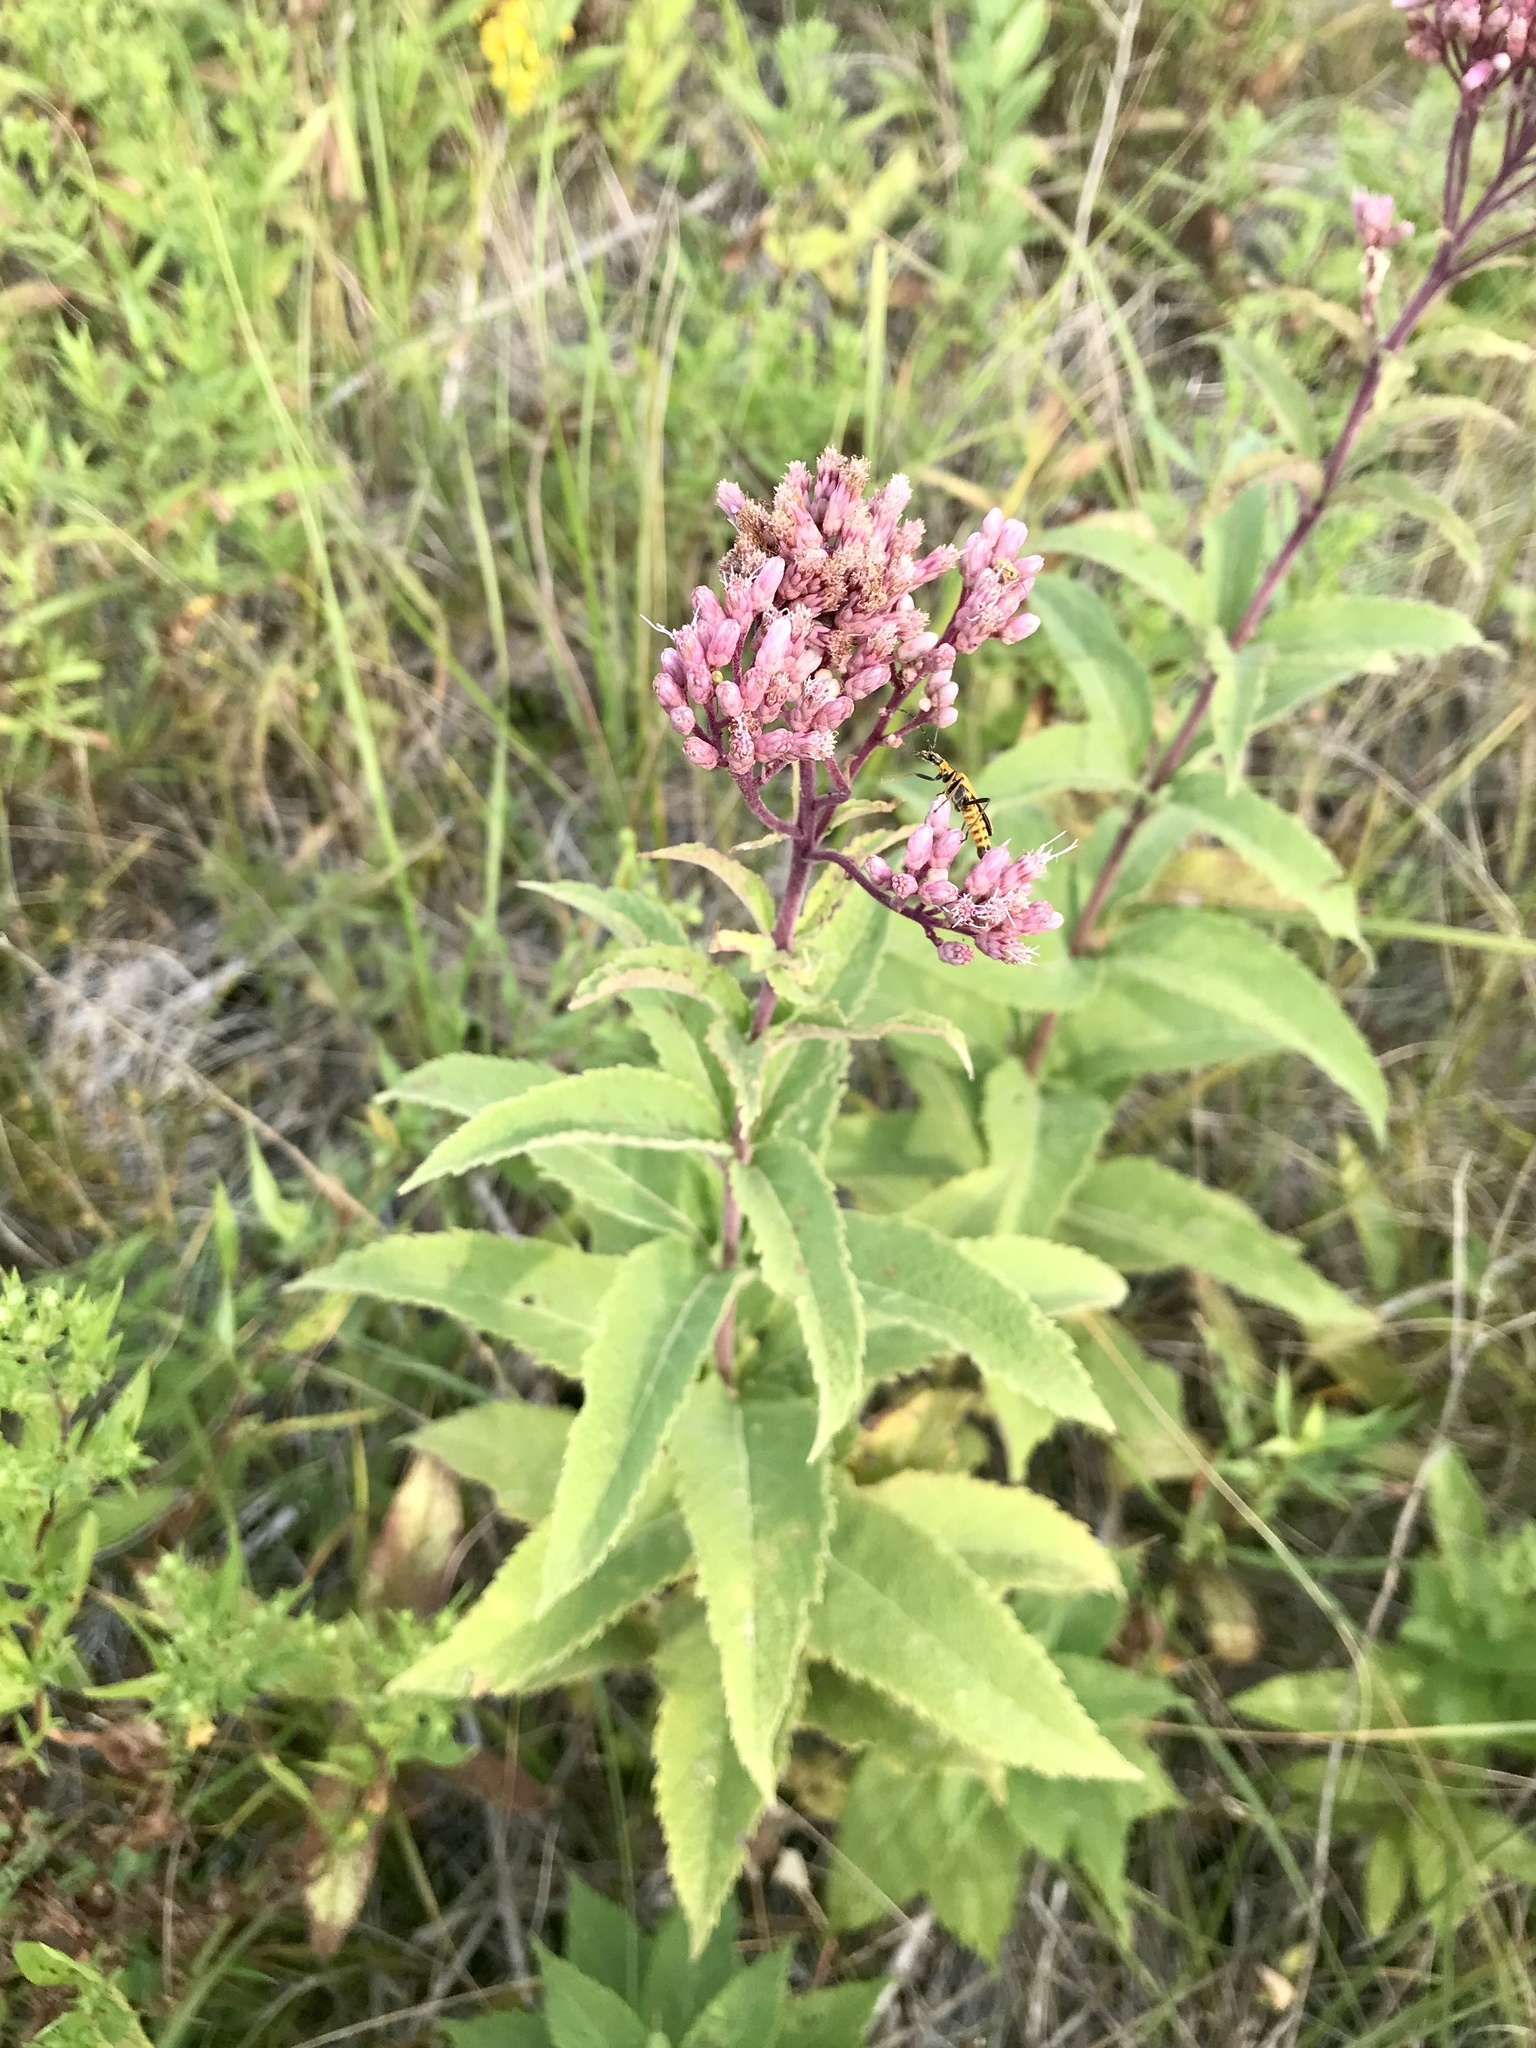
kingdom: Plantae
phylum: Tracheophyta
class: Magnoliopsida
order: Asterales
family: Asteraceae
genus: Eutrochium
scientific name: Eutrochium maculatum
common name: Spotted joe pye weed
